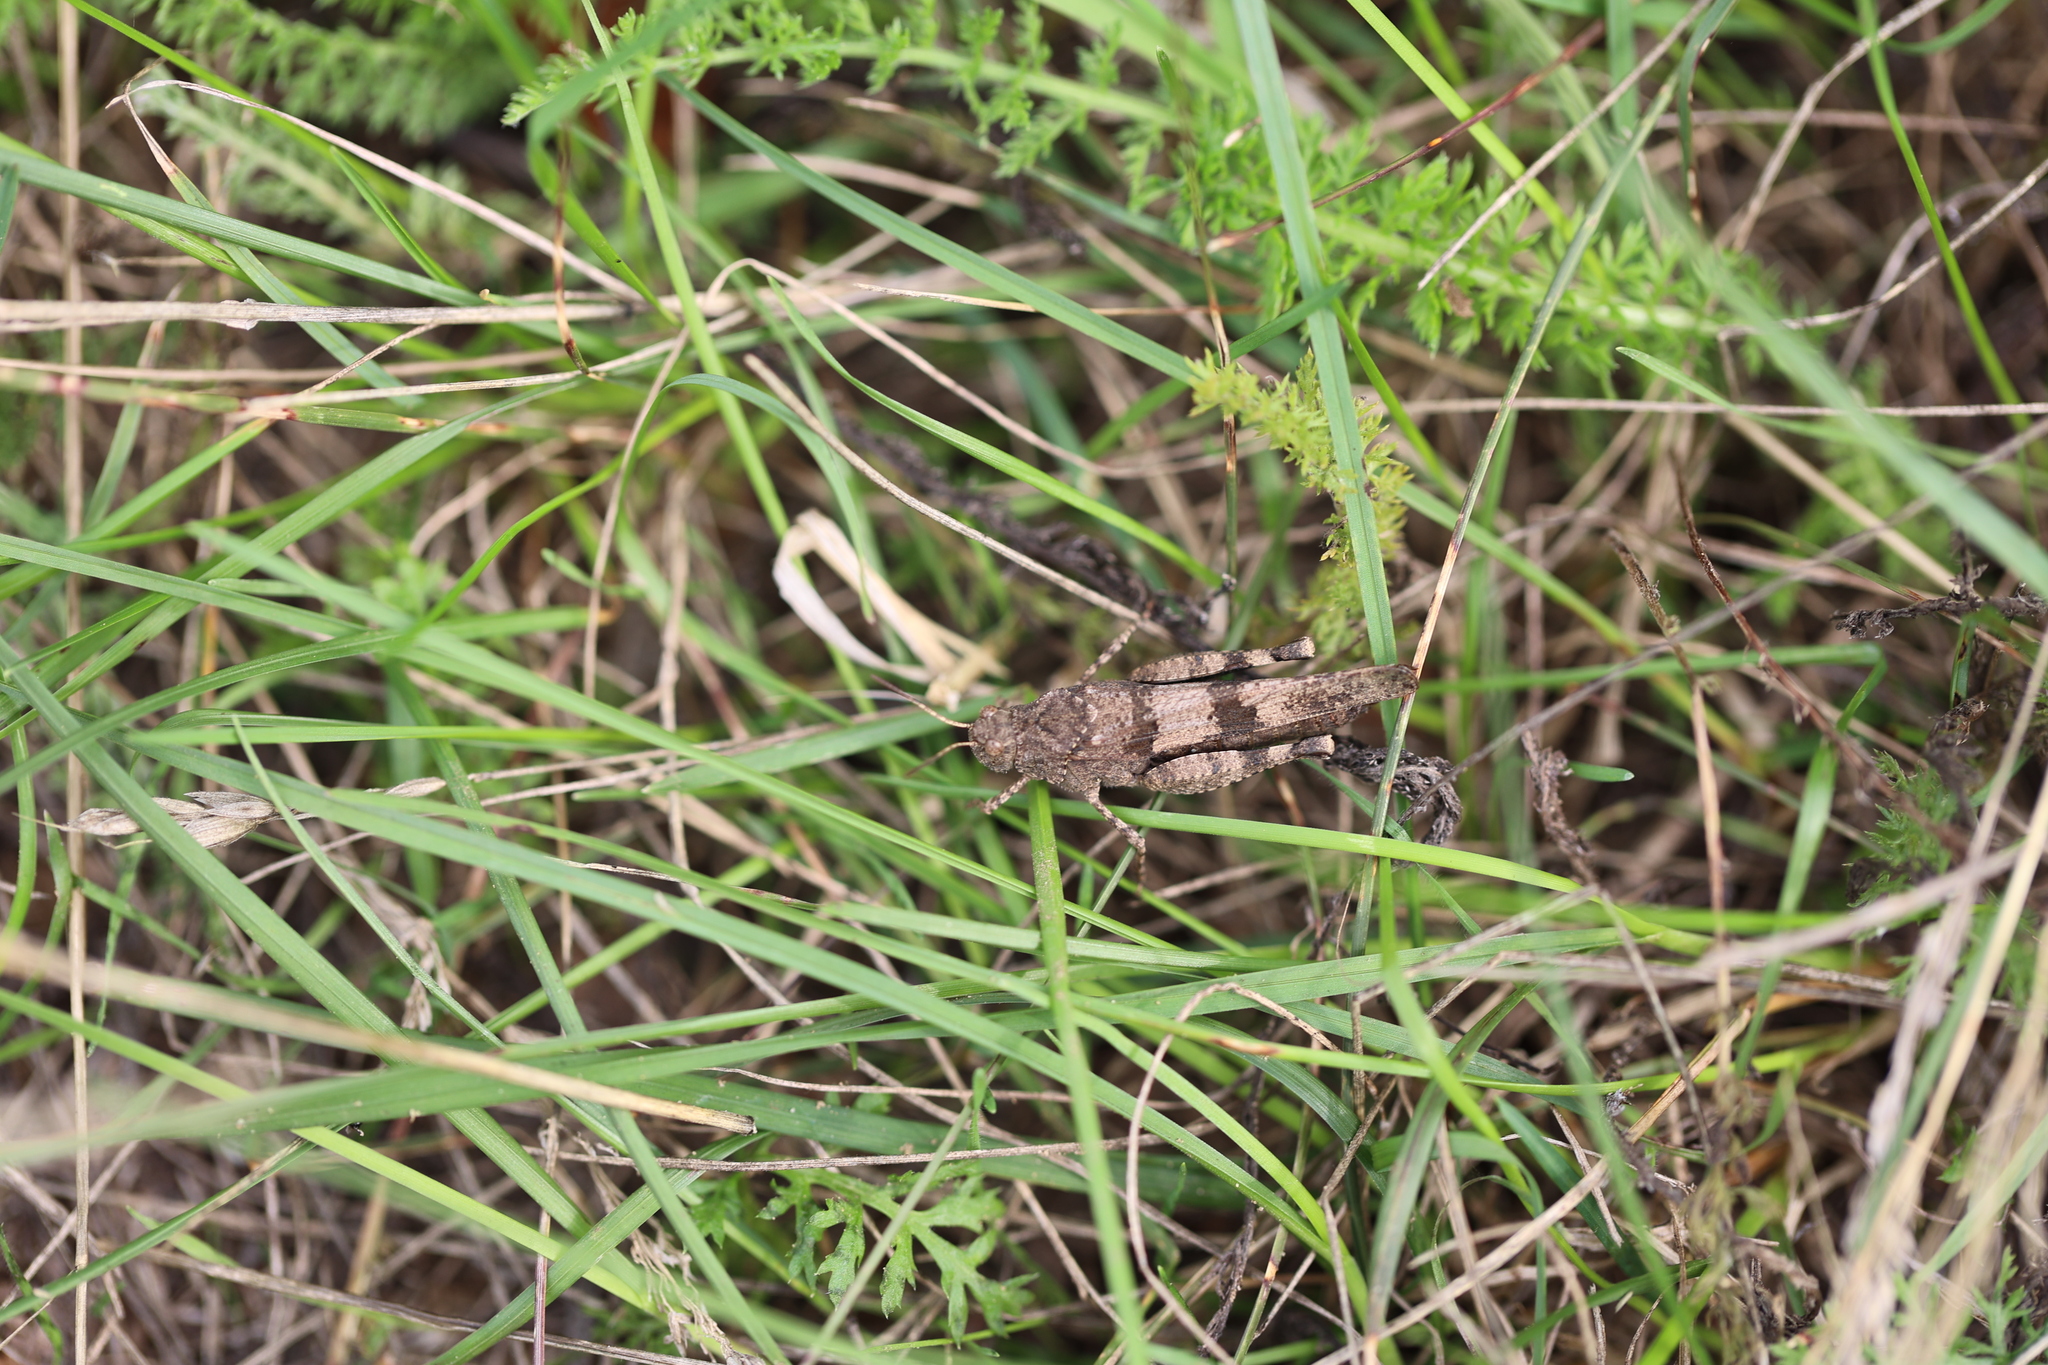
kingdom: Animalia
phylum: Arthropoda
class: Insecta
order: Orthoptera
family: Acrididae
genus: Oedipoda
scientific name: Oedipoda caerulescens
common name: Blue-winged grasshopper
